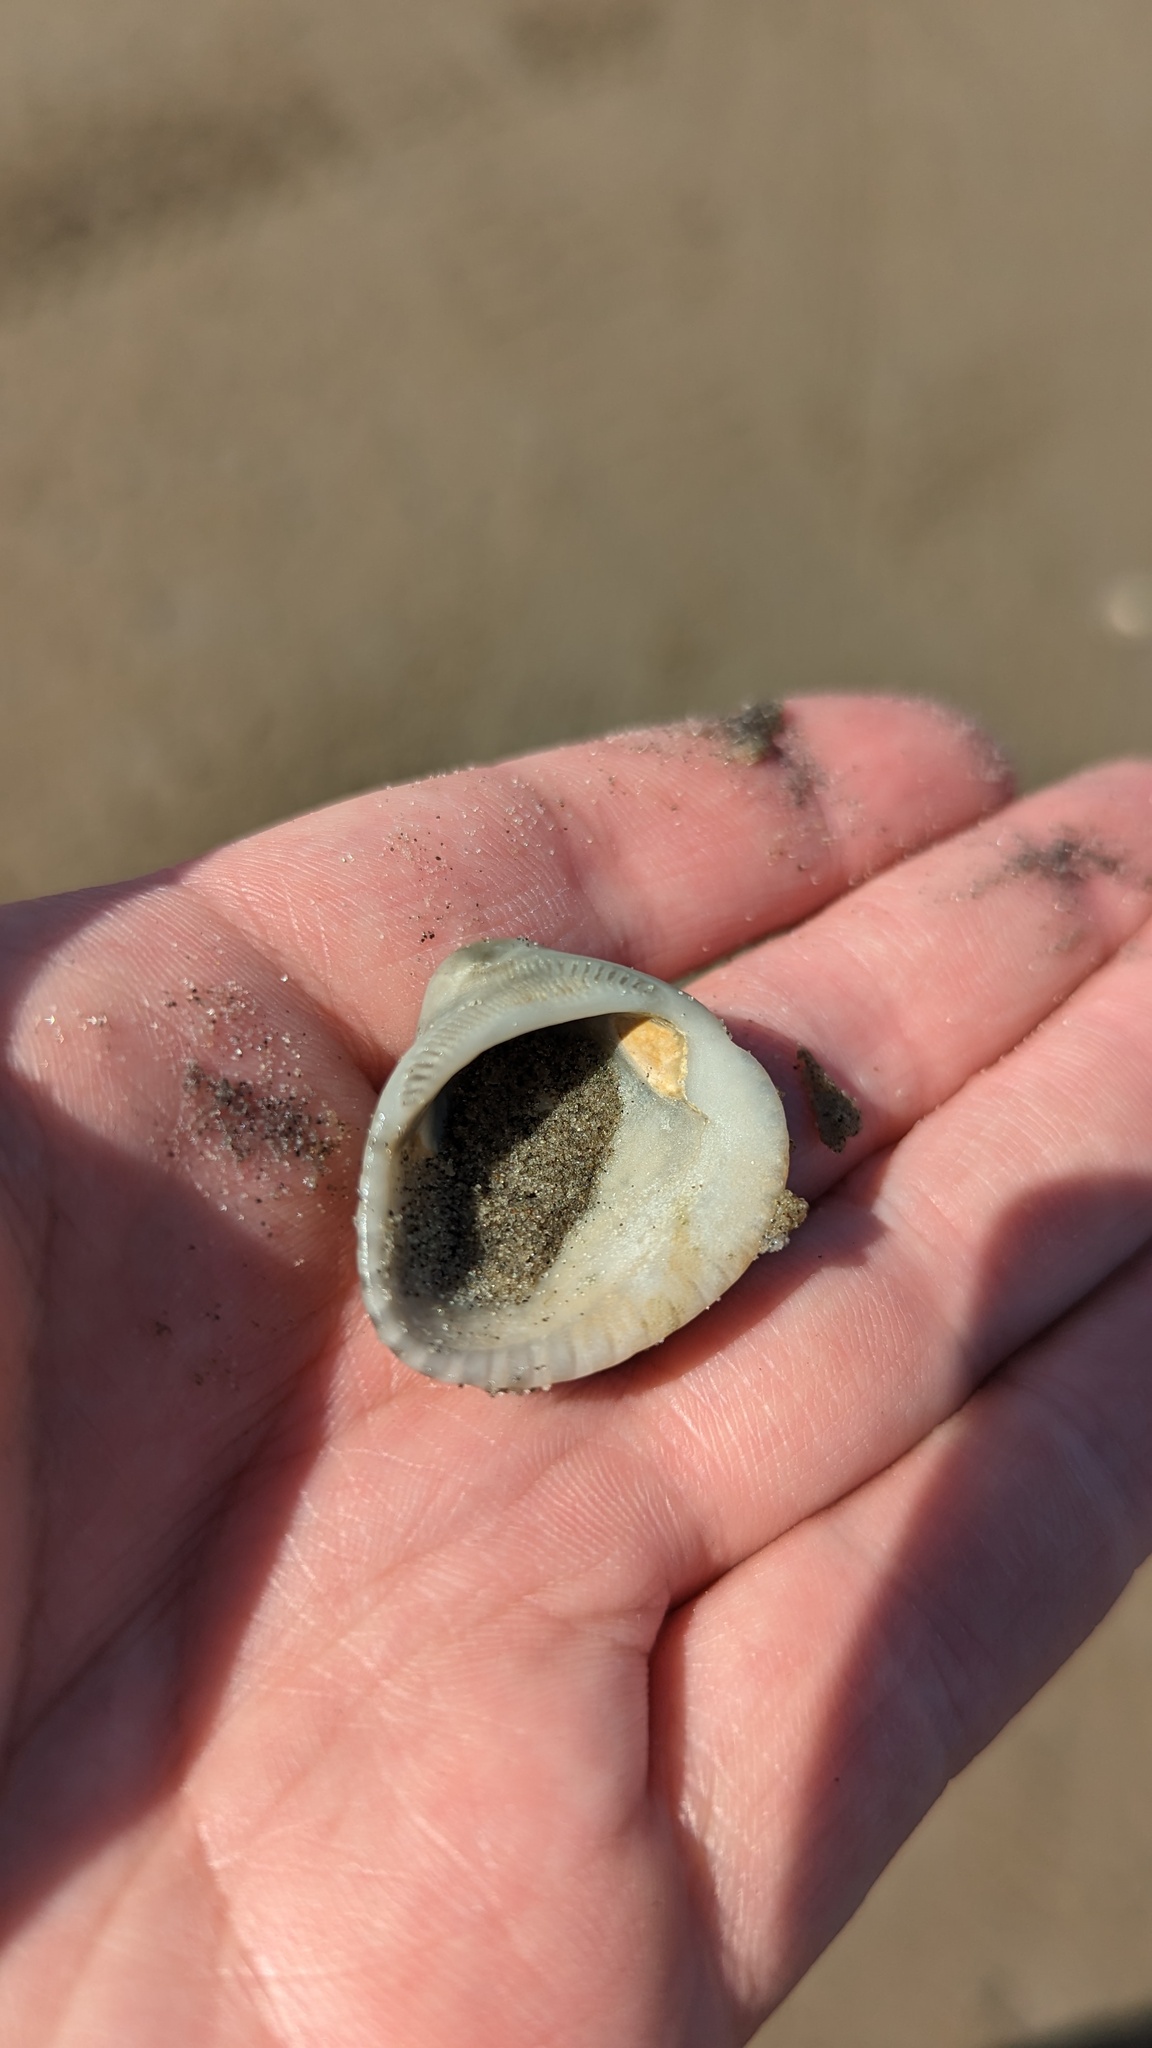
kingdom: Animalia
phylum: Mollusca
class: Bivalvia
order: Arcida
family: Noetiidae
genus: Noetia
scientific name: Noetia ponderosa
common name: Ponderous ark
